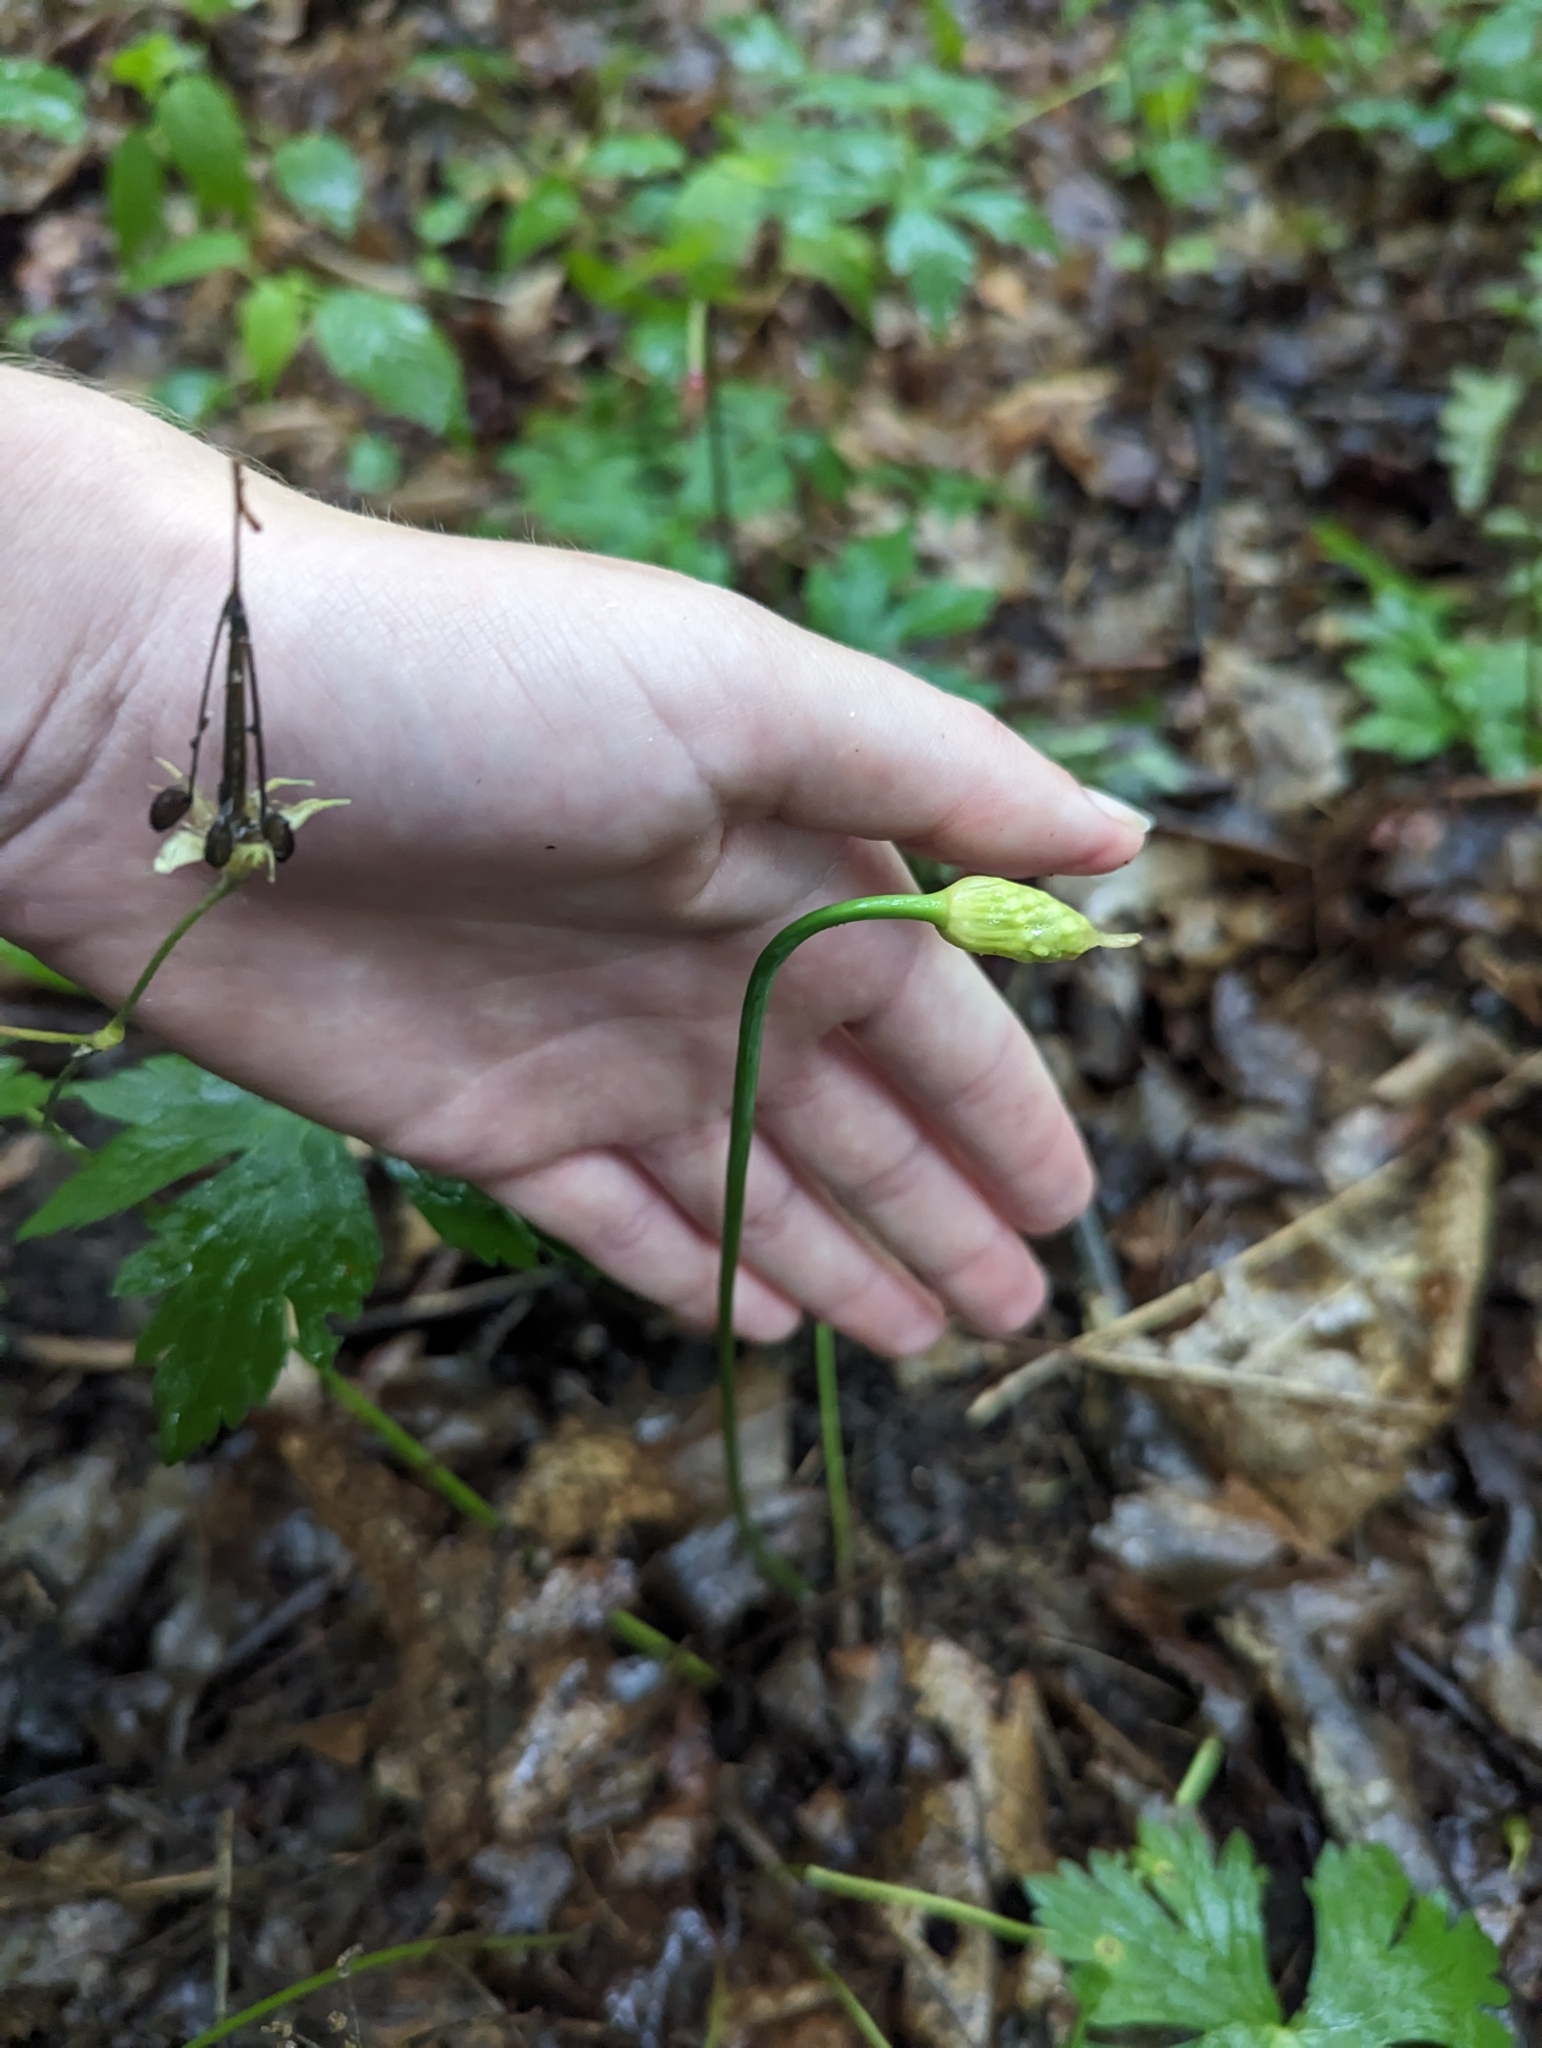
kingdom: Plantae
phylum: Tracheophyta
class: Liliopsida
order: Asparagales
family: Amaryllidaceae
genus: Allium
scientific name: Allium tricoccum
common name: Ramp
